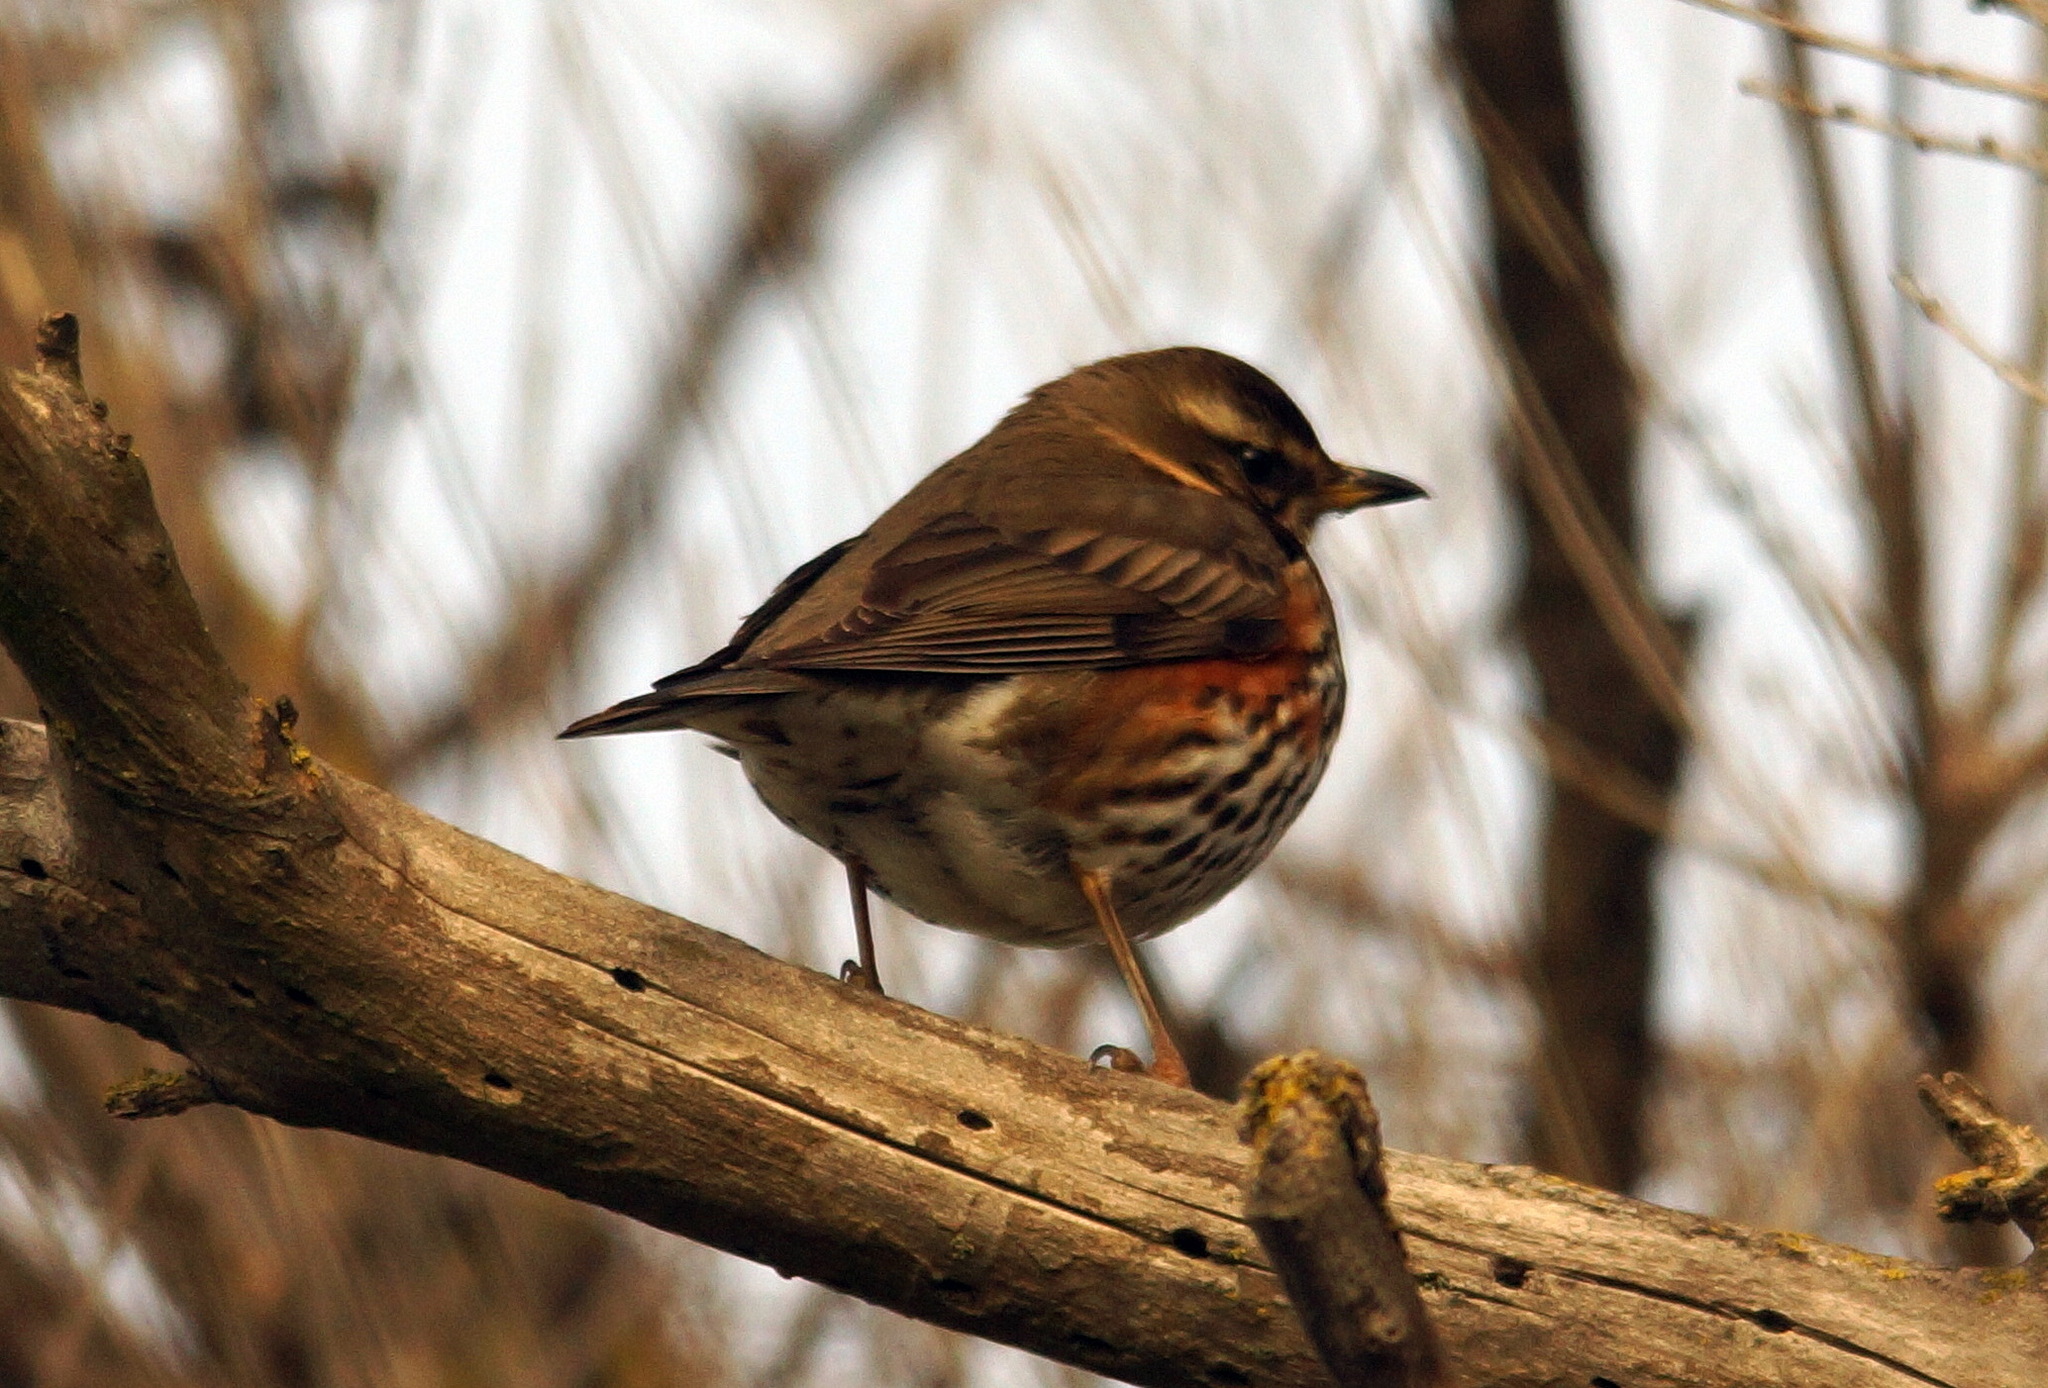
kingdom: Animalia
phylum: Chordata
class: Aves
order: Passeriformes
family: Turdidae
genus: Turdus
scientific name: Turdus iliacus
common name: Redwing
